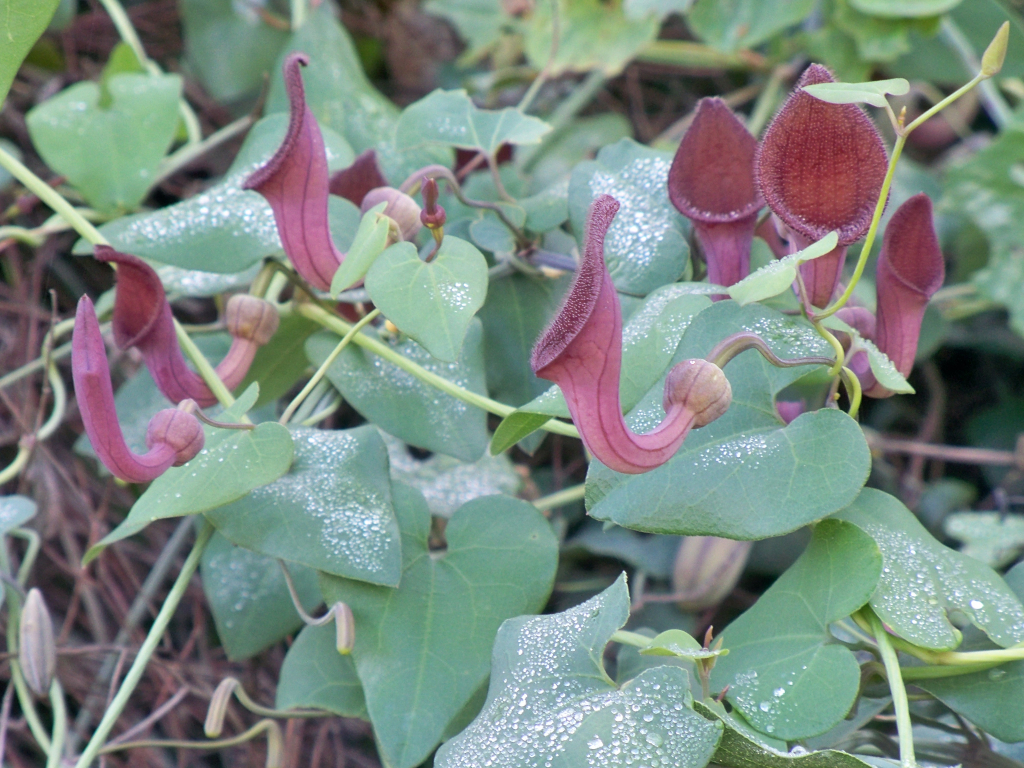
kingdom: Plantae
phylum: Tracheophyta
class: Magnoliopsida
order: Piperales
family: Aristolochiaceae
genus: Aristolochia
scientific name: Aristolochia baetica
